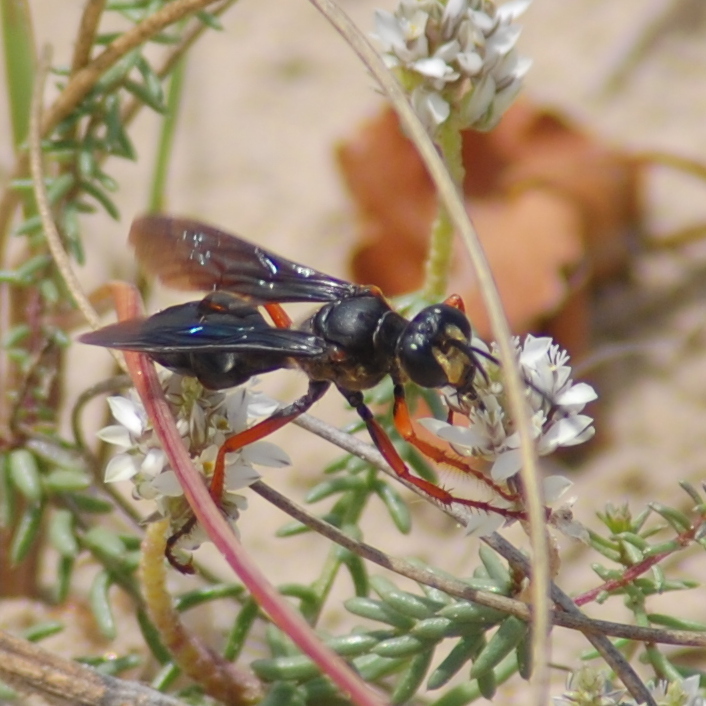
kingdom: Animalia
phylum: Arthropoda
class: Insecta
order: Hymenoptera
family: Sphecidae
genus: Sphex
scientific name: Sphex opacus
